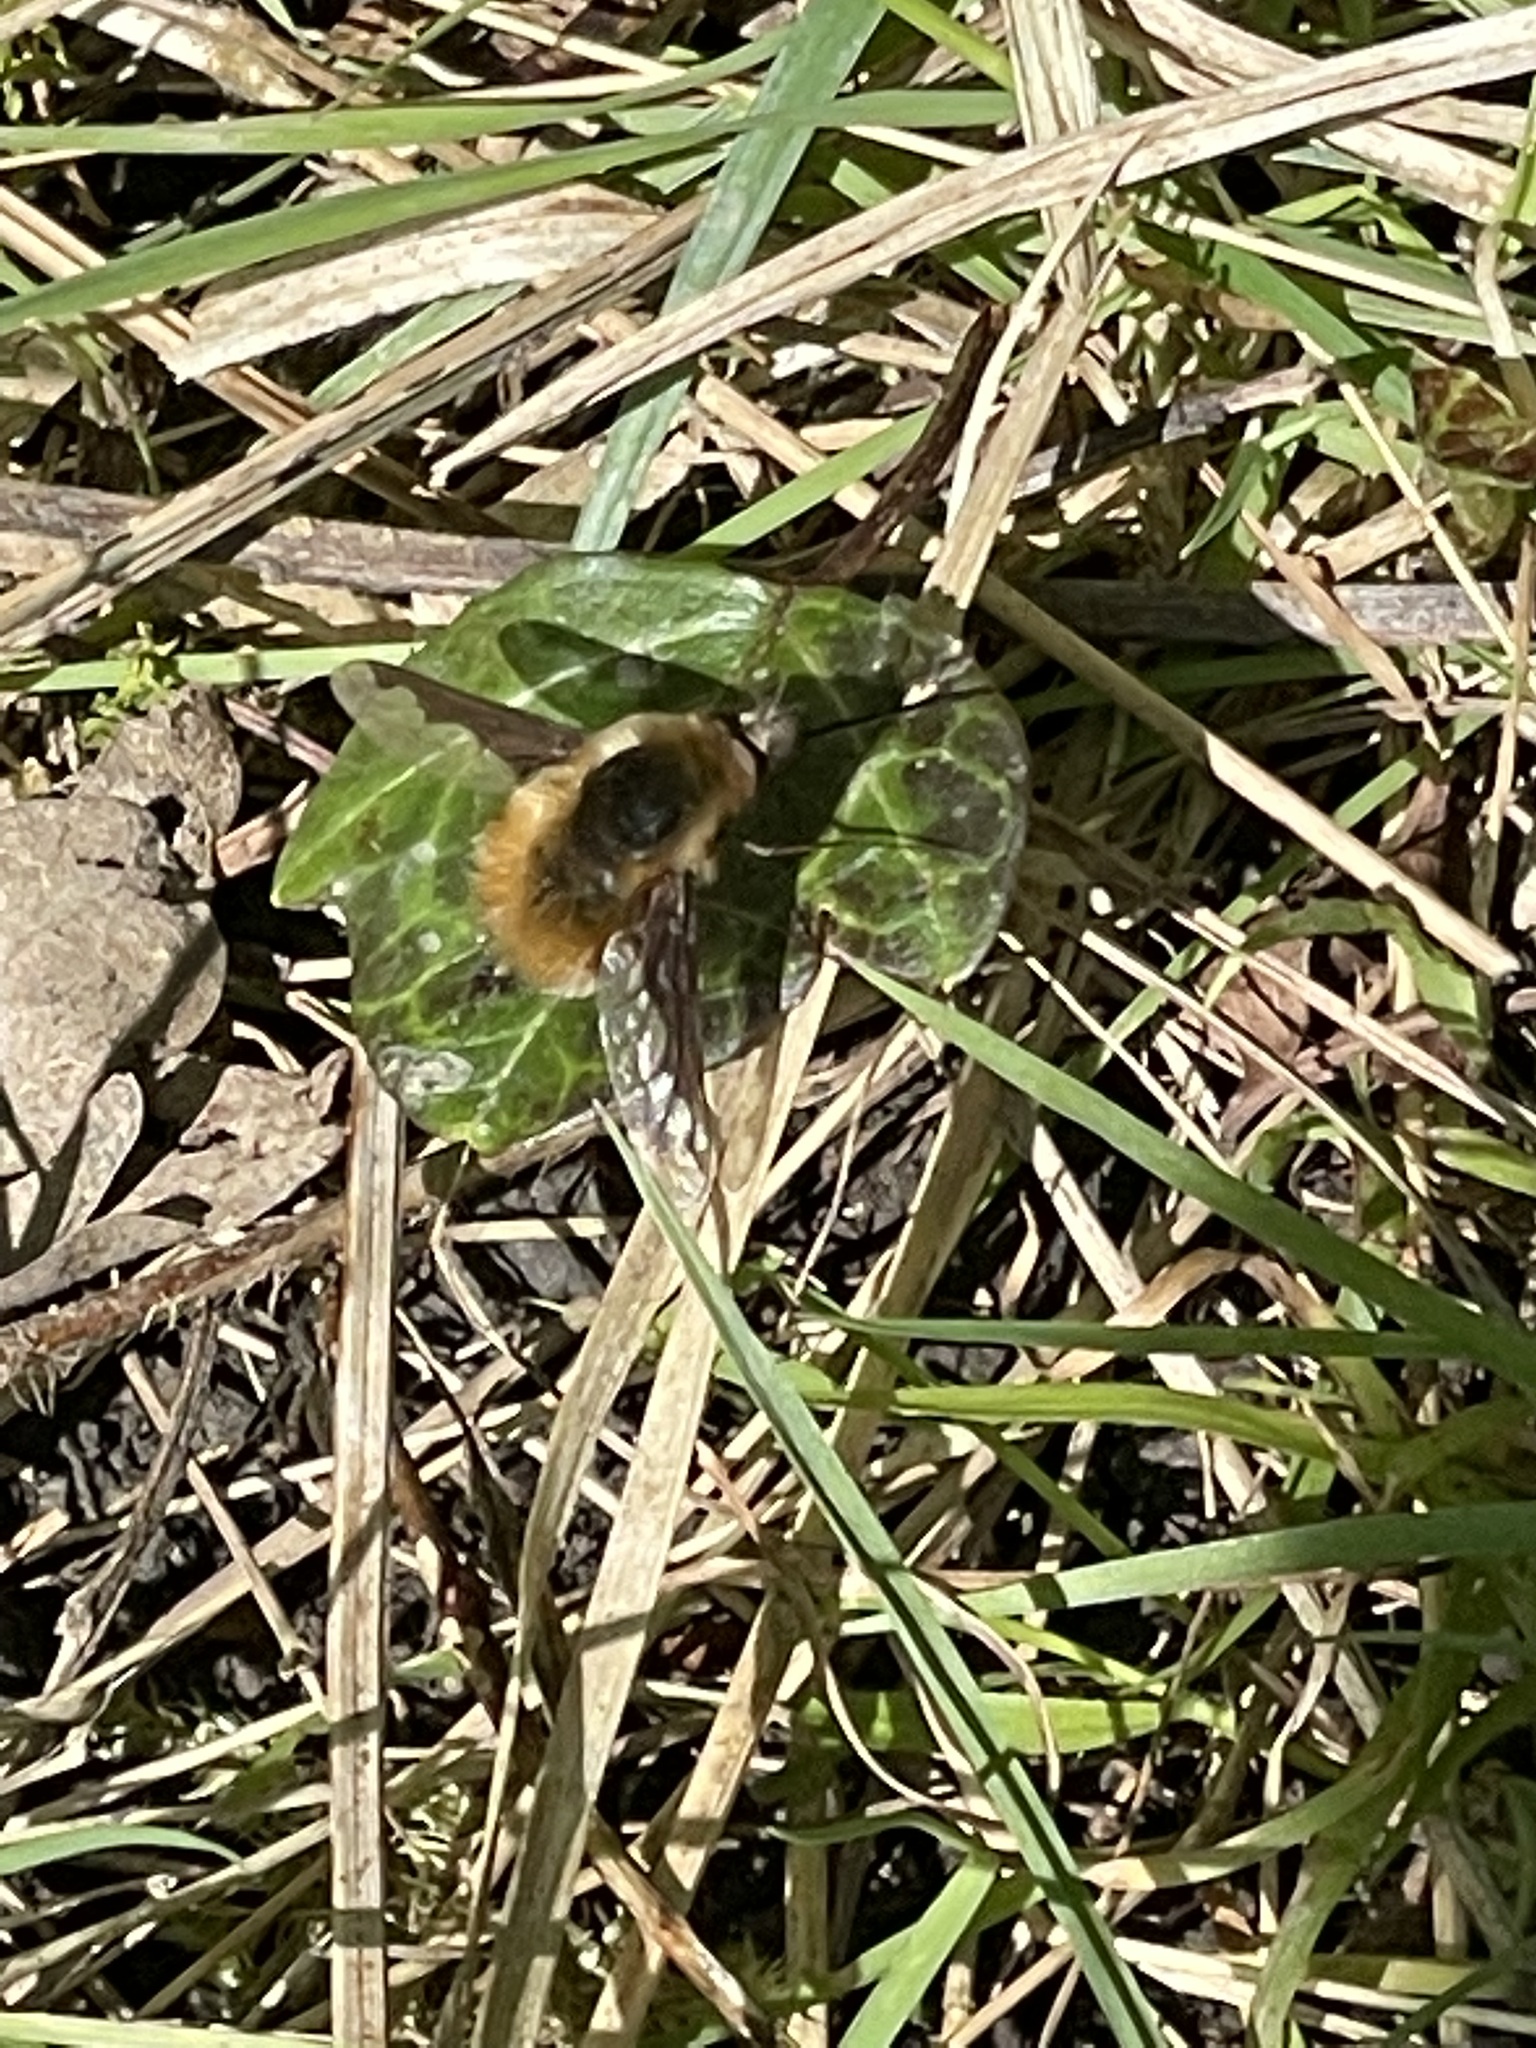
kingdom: Animalia
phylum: Arthropoda
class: Insecta
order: Diptera
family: Bombyliidae
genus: Bombylius
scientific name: Bombylius major
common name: Bee fly
